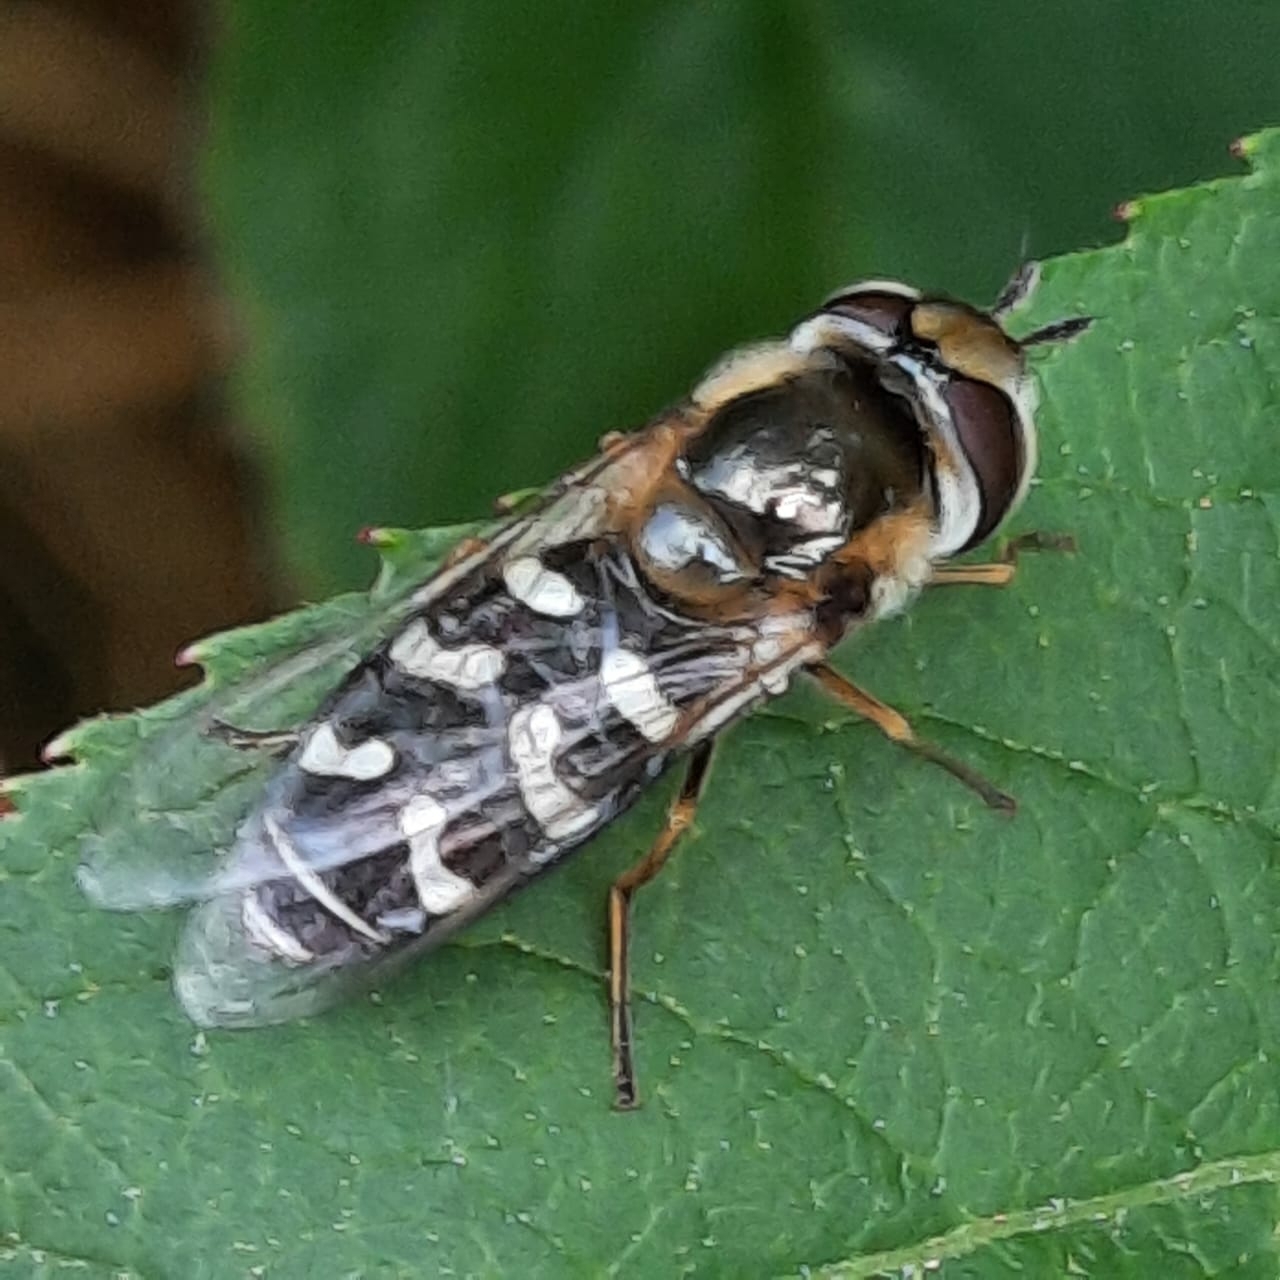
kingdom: Animalia
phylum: Arthropoda
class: Insecta
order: Diptera
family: Syrphidae
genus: Scaeva
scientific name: Scaeva pyrastri
